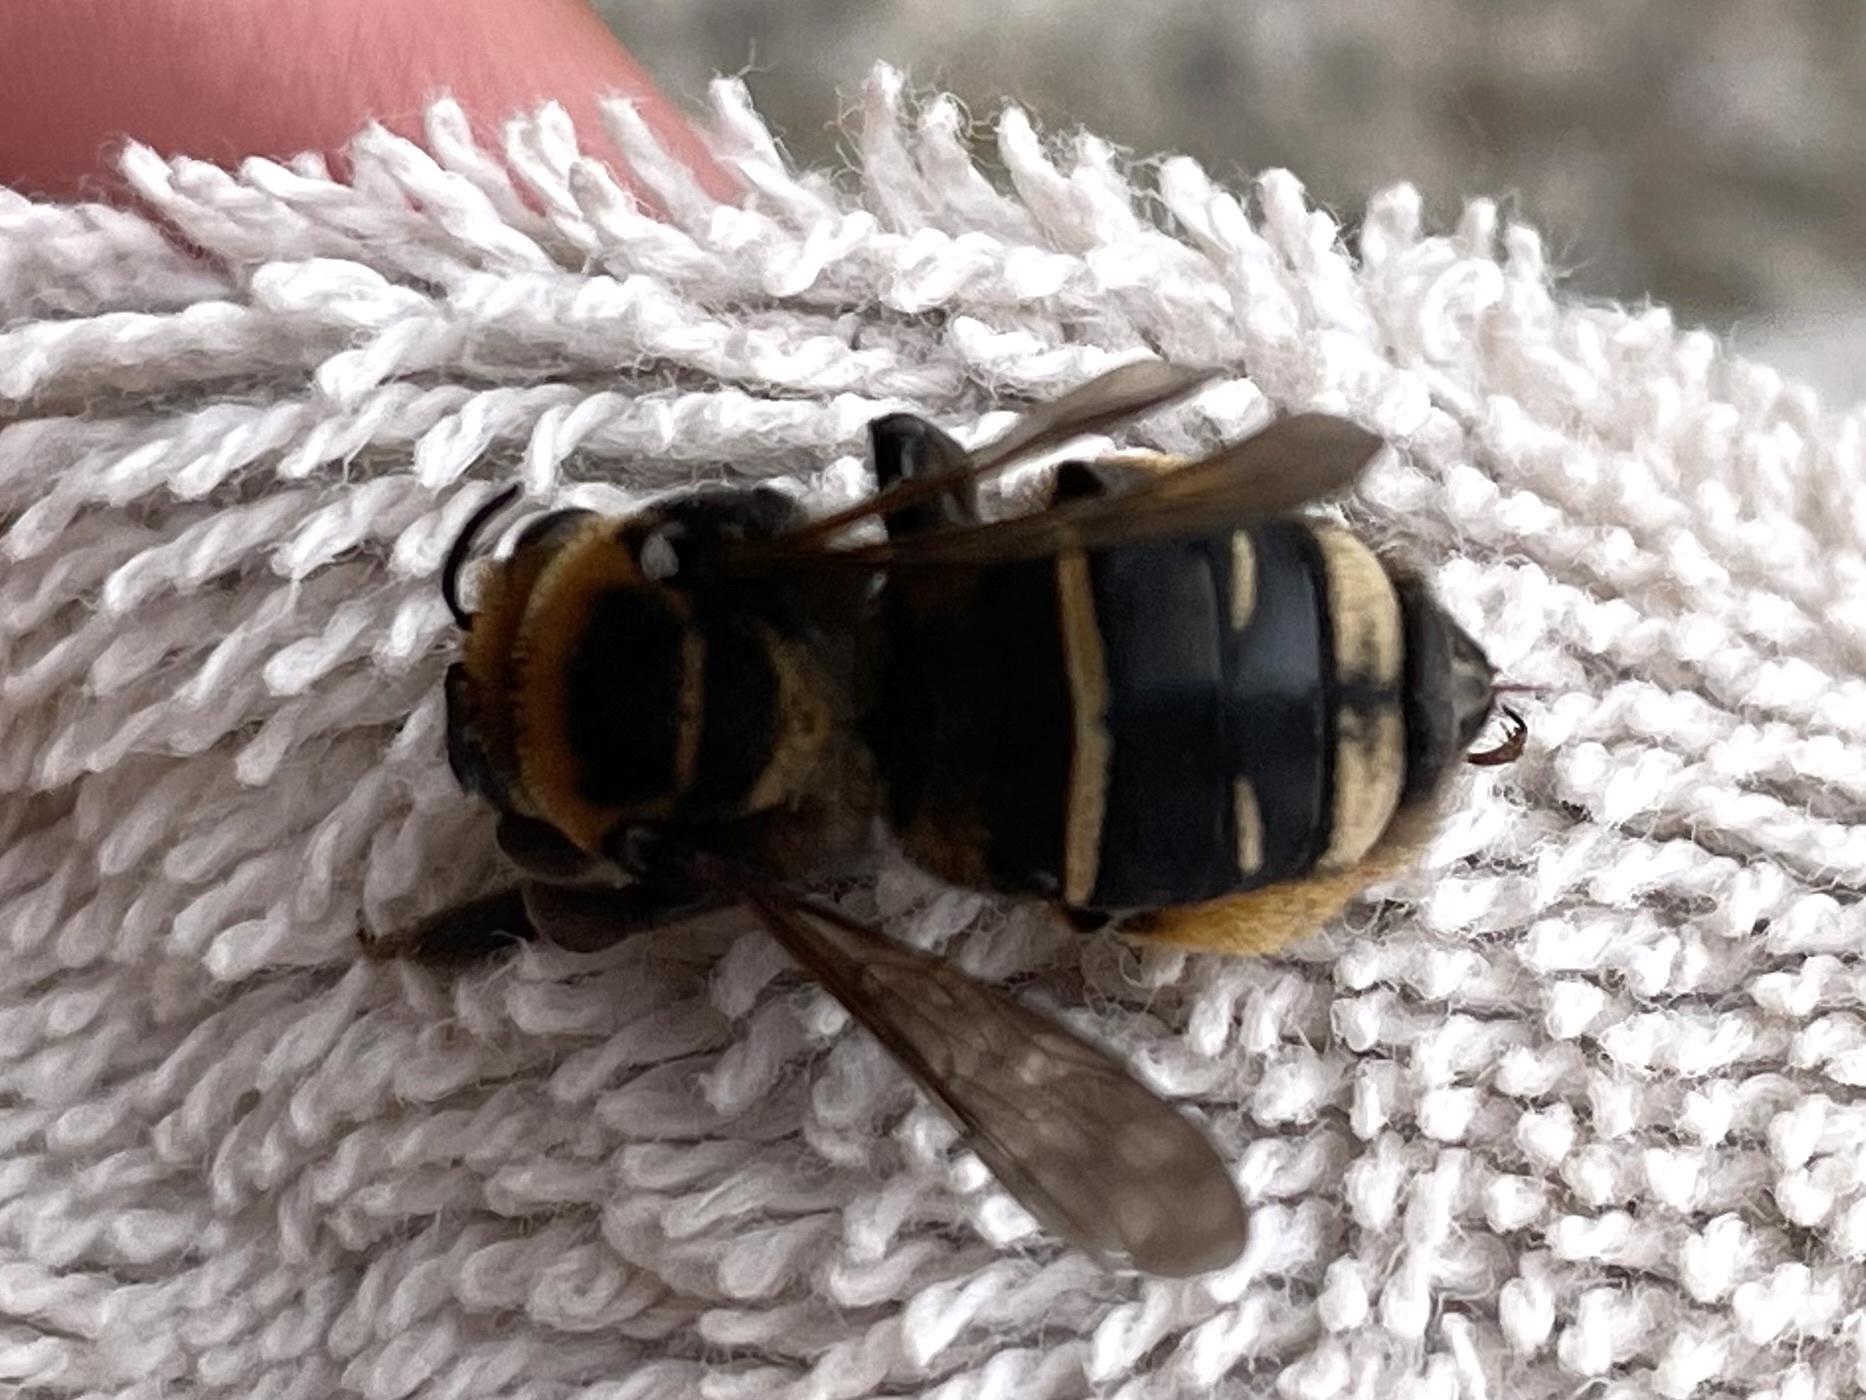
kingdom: Animalia
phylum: Arthropoda
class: Insecta
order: Hymenoptera
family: Apidae
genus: Svastra
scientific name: Svastra obliqua
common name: Oblique longhorn
